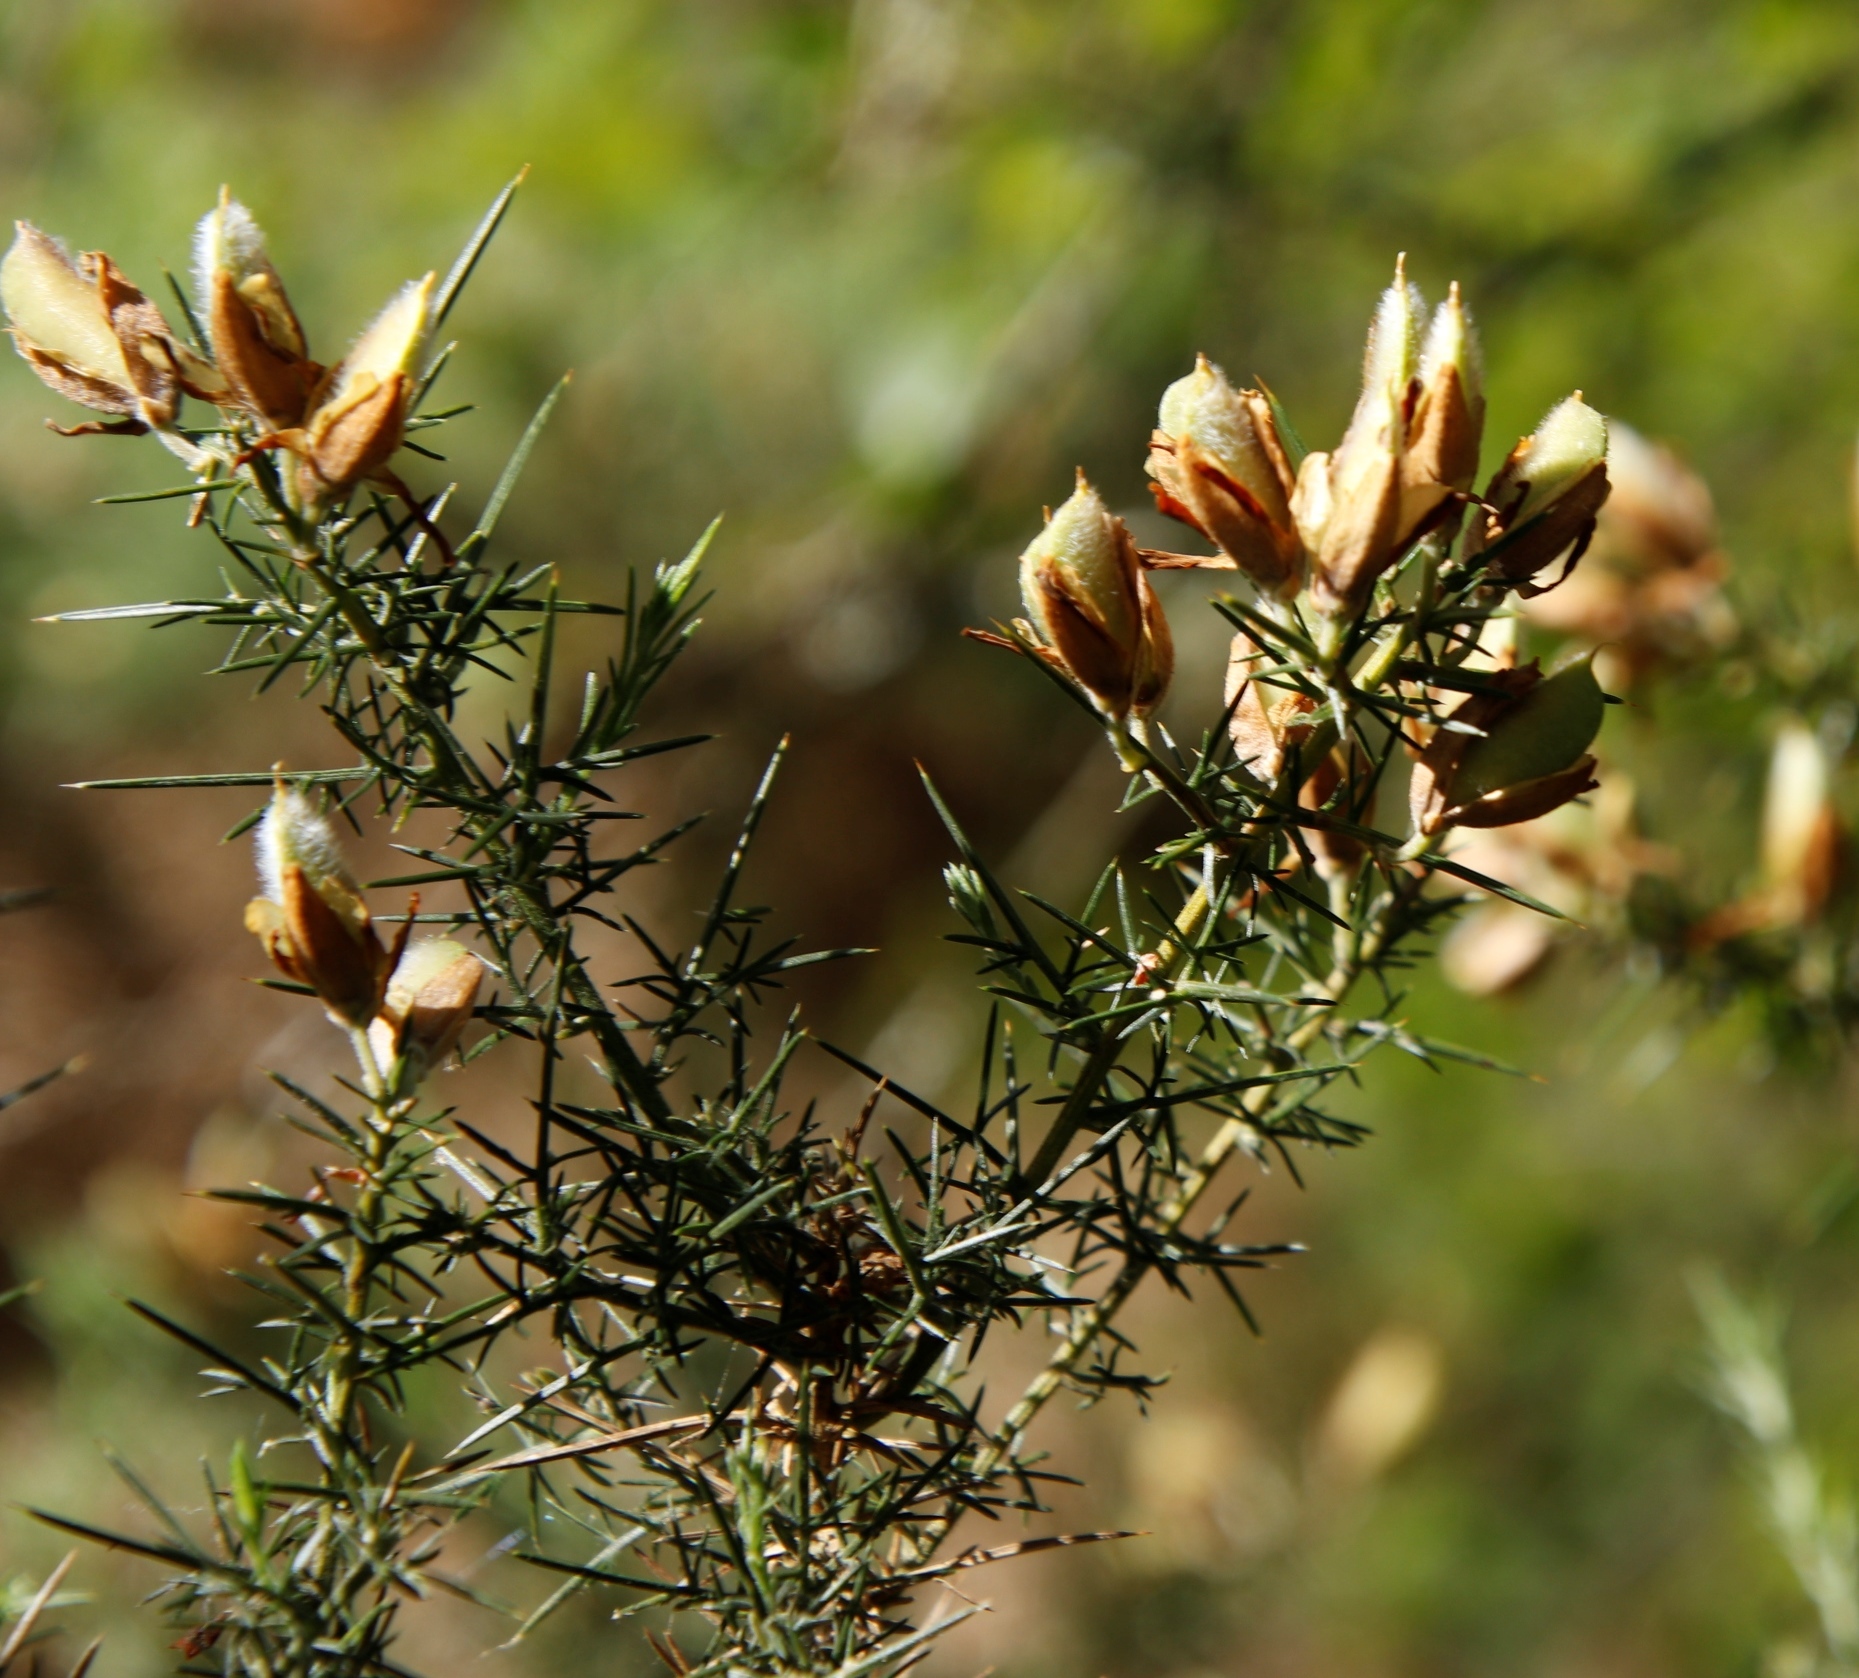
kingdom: Plantae
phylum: Tracheophyta
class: Magnoliopsida
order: Fabales
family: Fabaceae
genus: Ulex
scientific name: Ulex europaeus
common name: Common gorse
